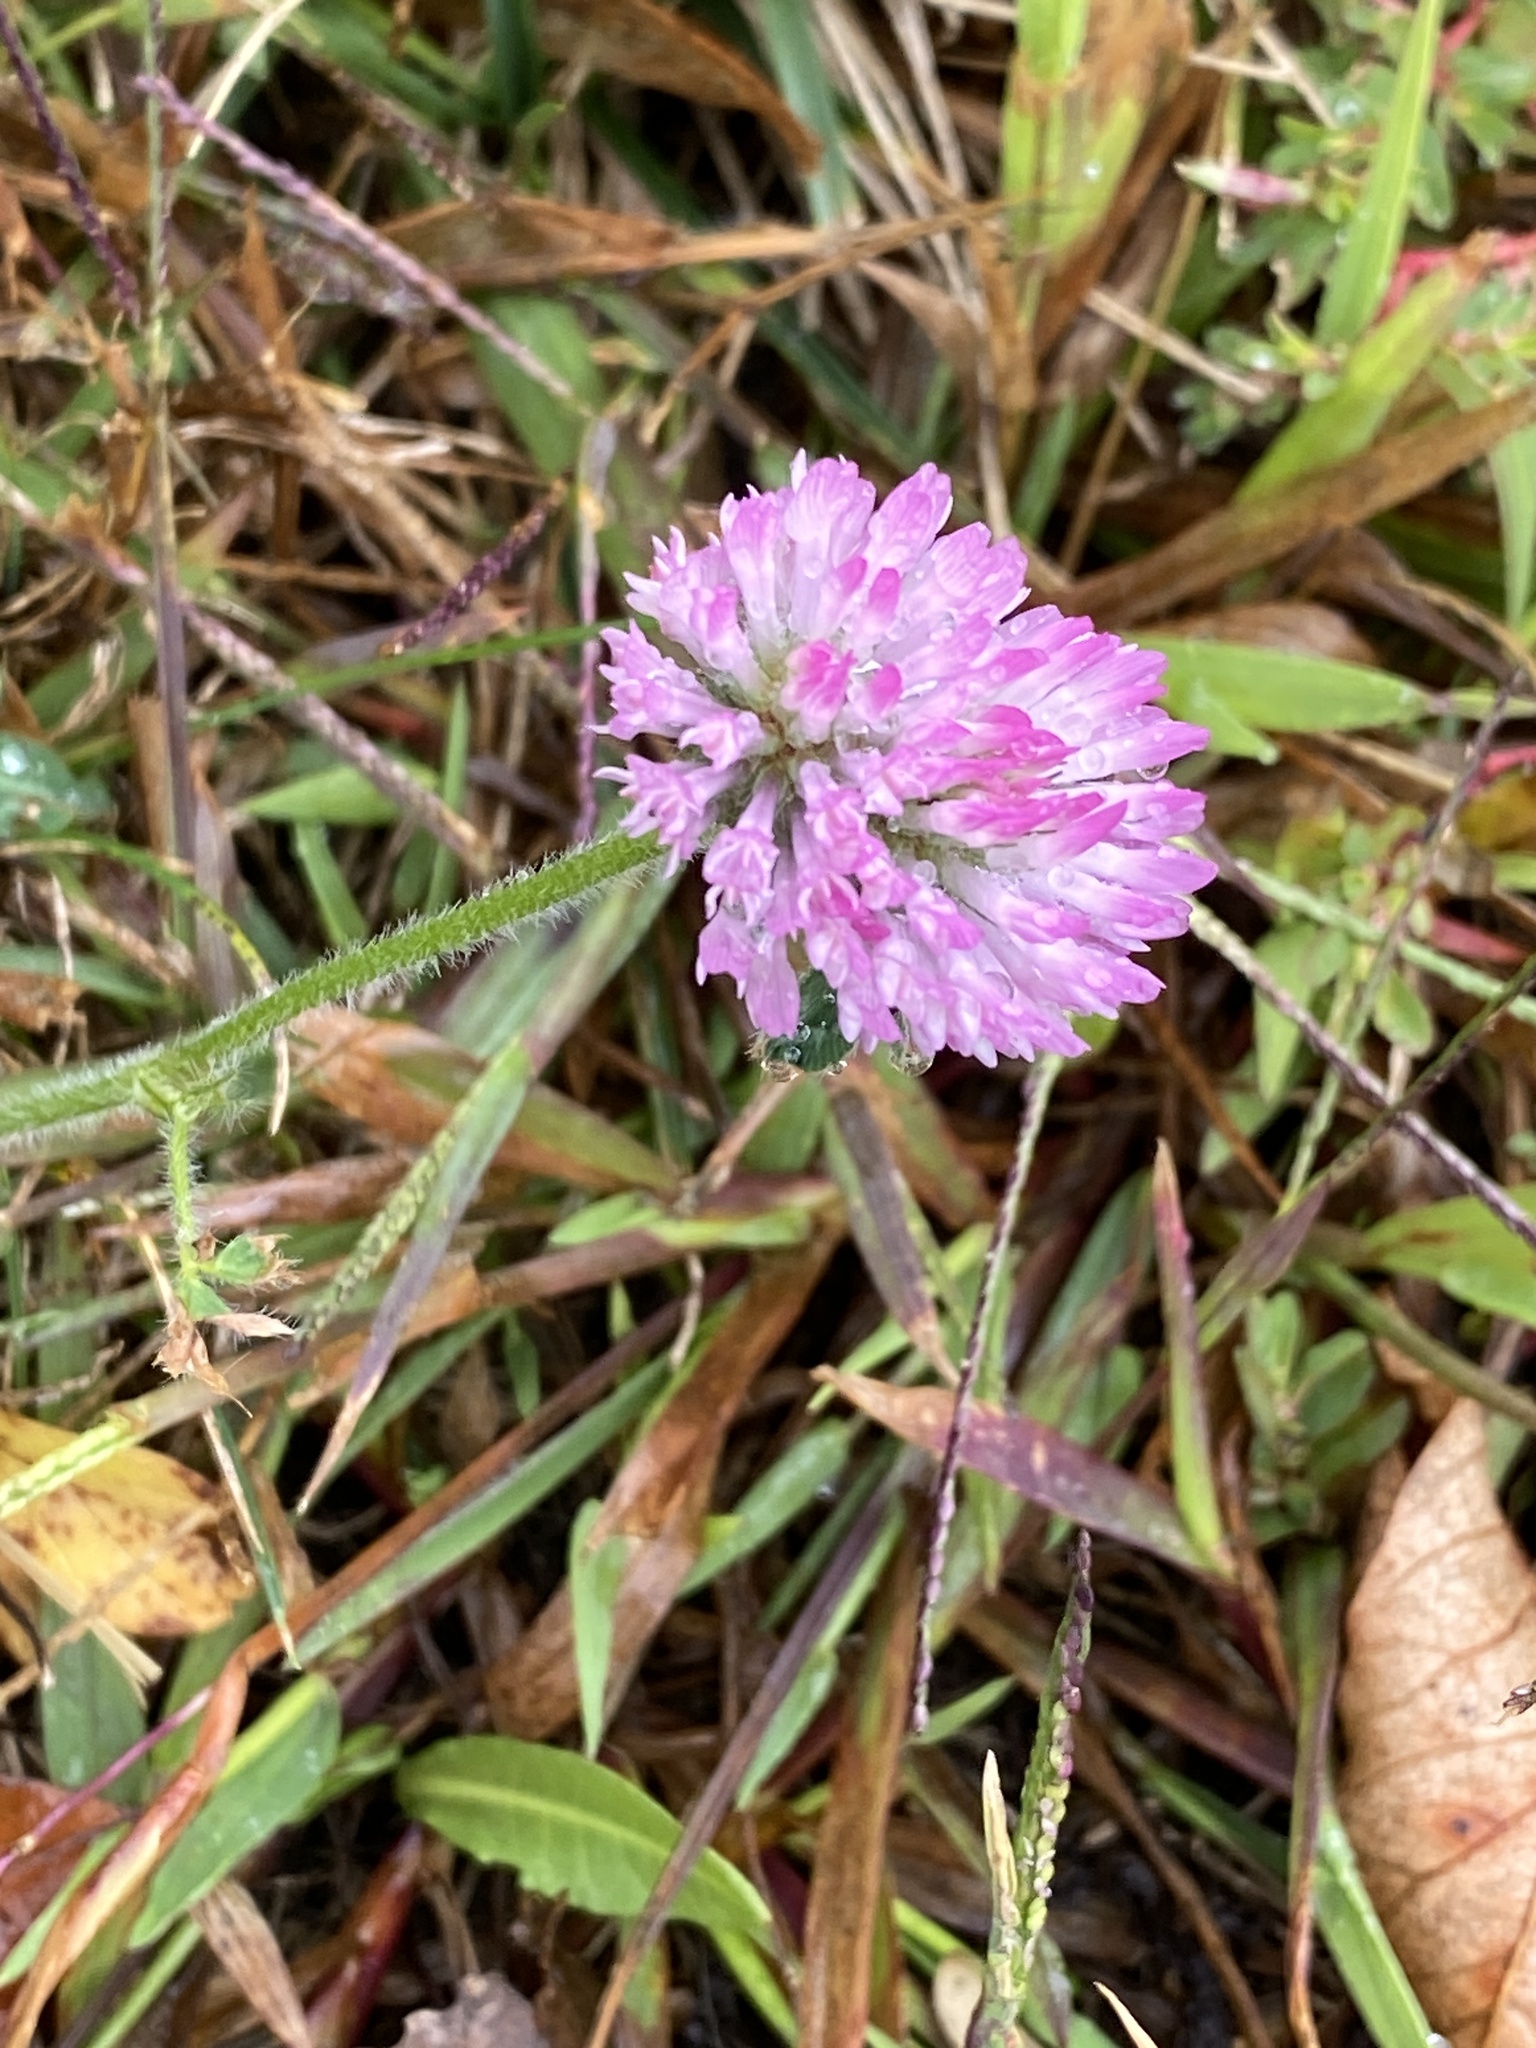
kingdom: Plantae
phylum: Tracheophyta
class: Magnoliopsida
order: Fabales
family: Fabaceae
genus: Trifolium
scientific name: Trifolium pratense
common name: Red clover
